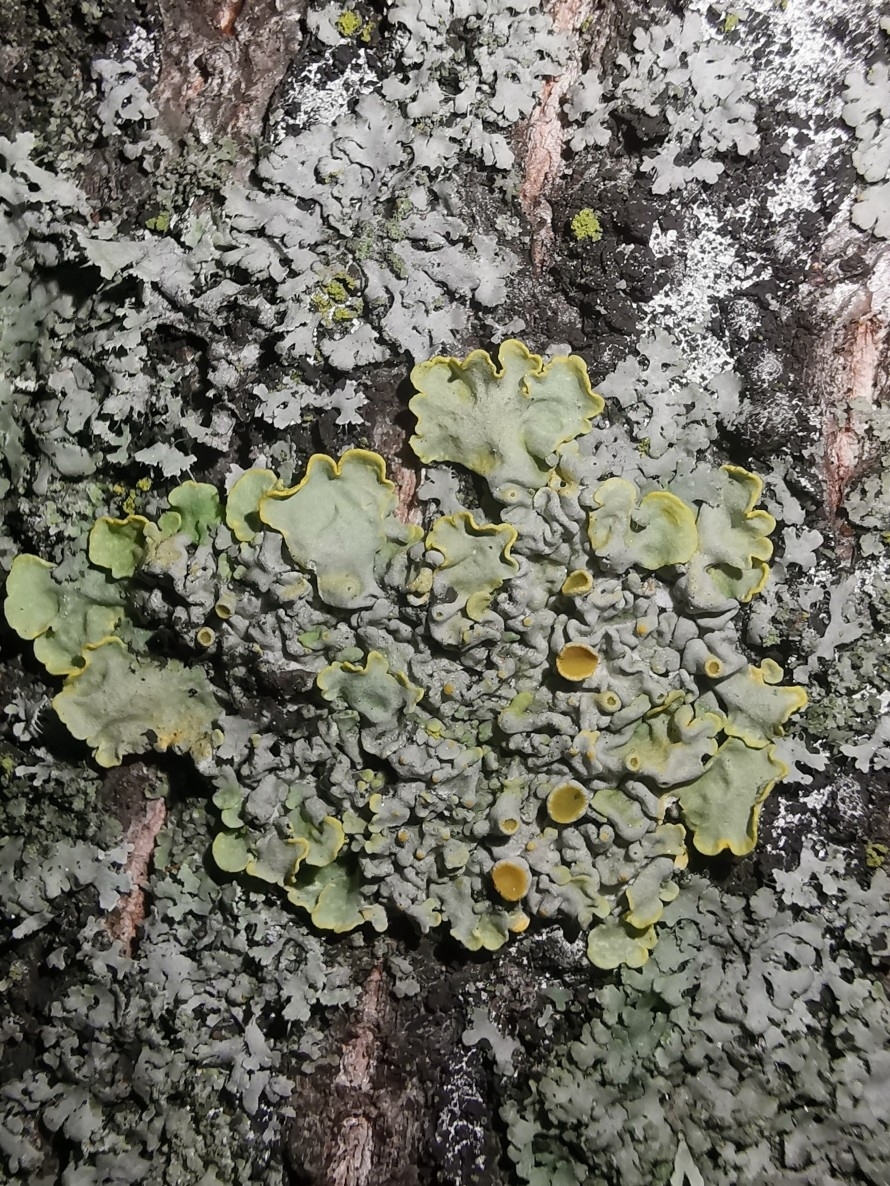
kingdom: Fungi
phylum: Ascomycota
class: Lecanoromycetes
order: Teloschistales
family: Teloschistaceae
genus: Xanthoria
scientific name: Xanthoria parietina
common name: Common orange lichen
